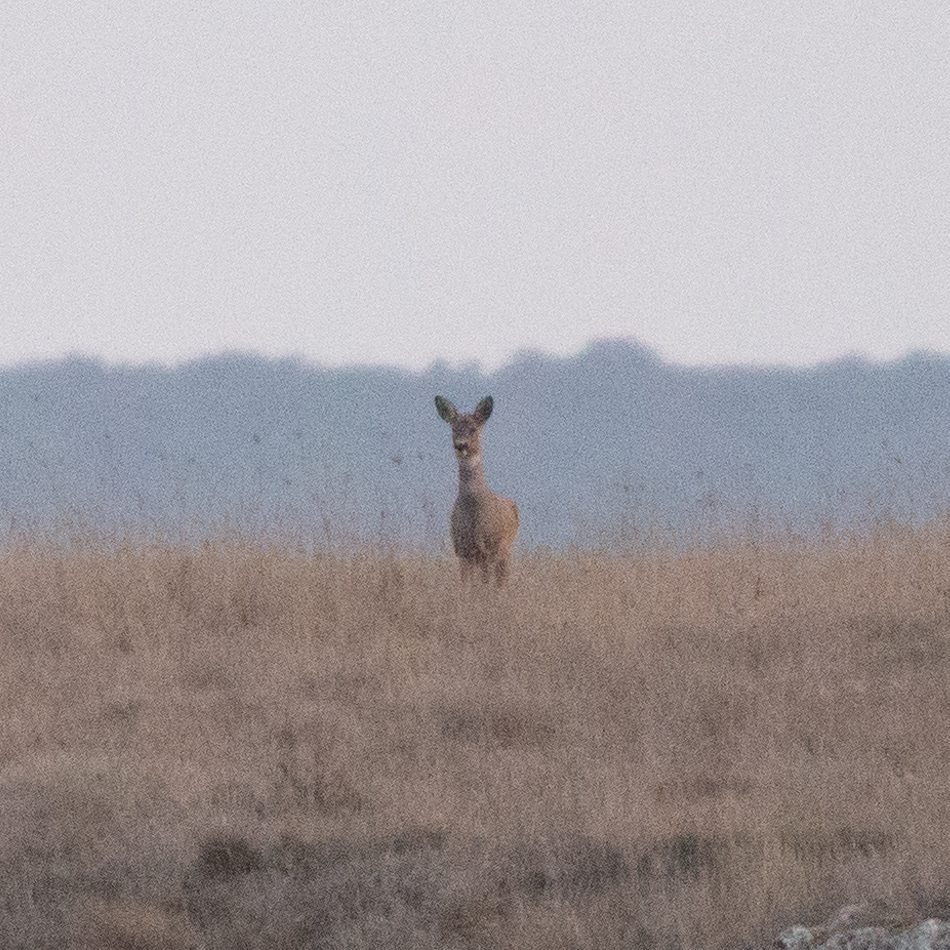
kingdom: Animalia
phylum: Chordata
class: Mammalia
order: Artiodactyla
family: Cervidae
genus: Capreolus
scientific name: Capreolus capreolus
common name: Western roe deer
